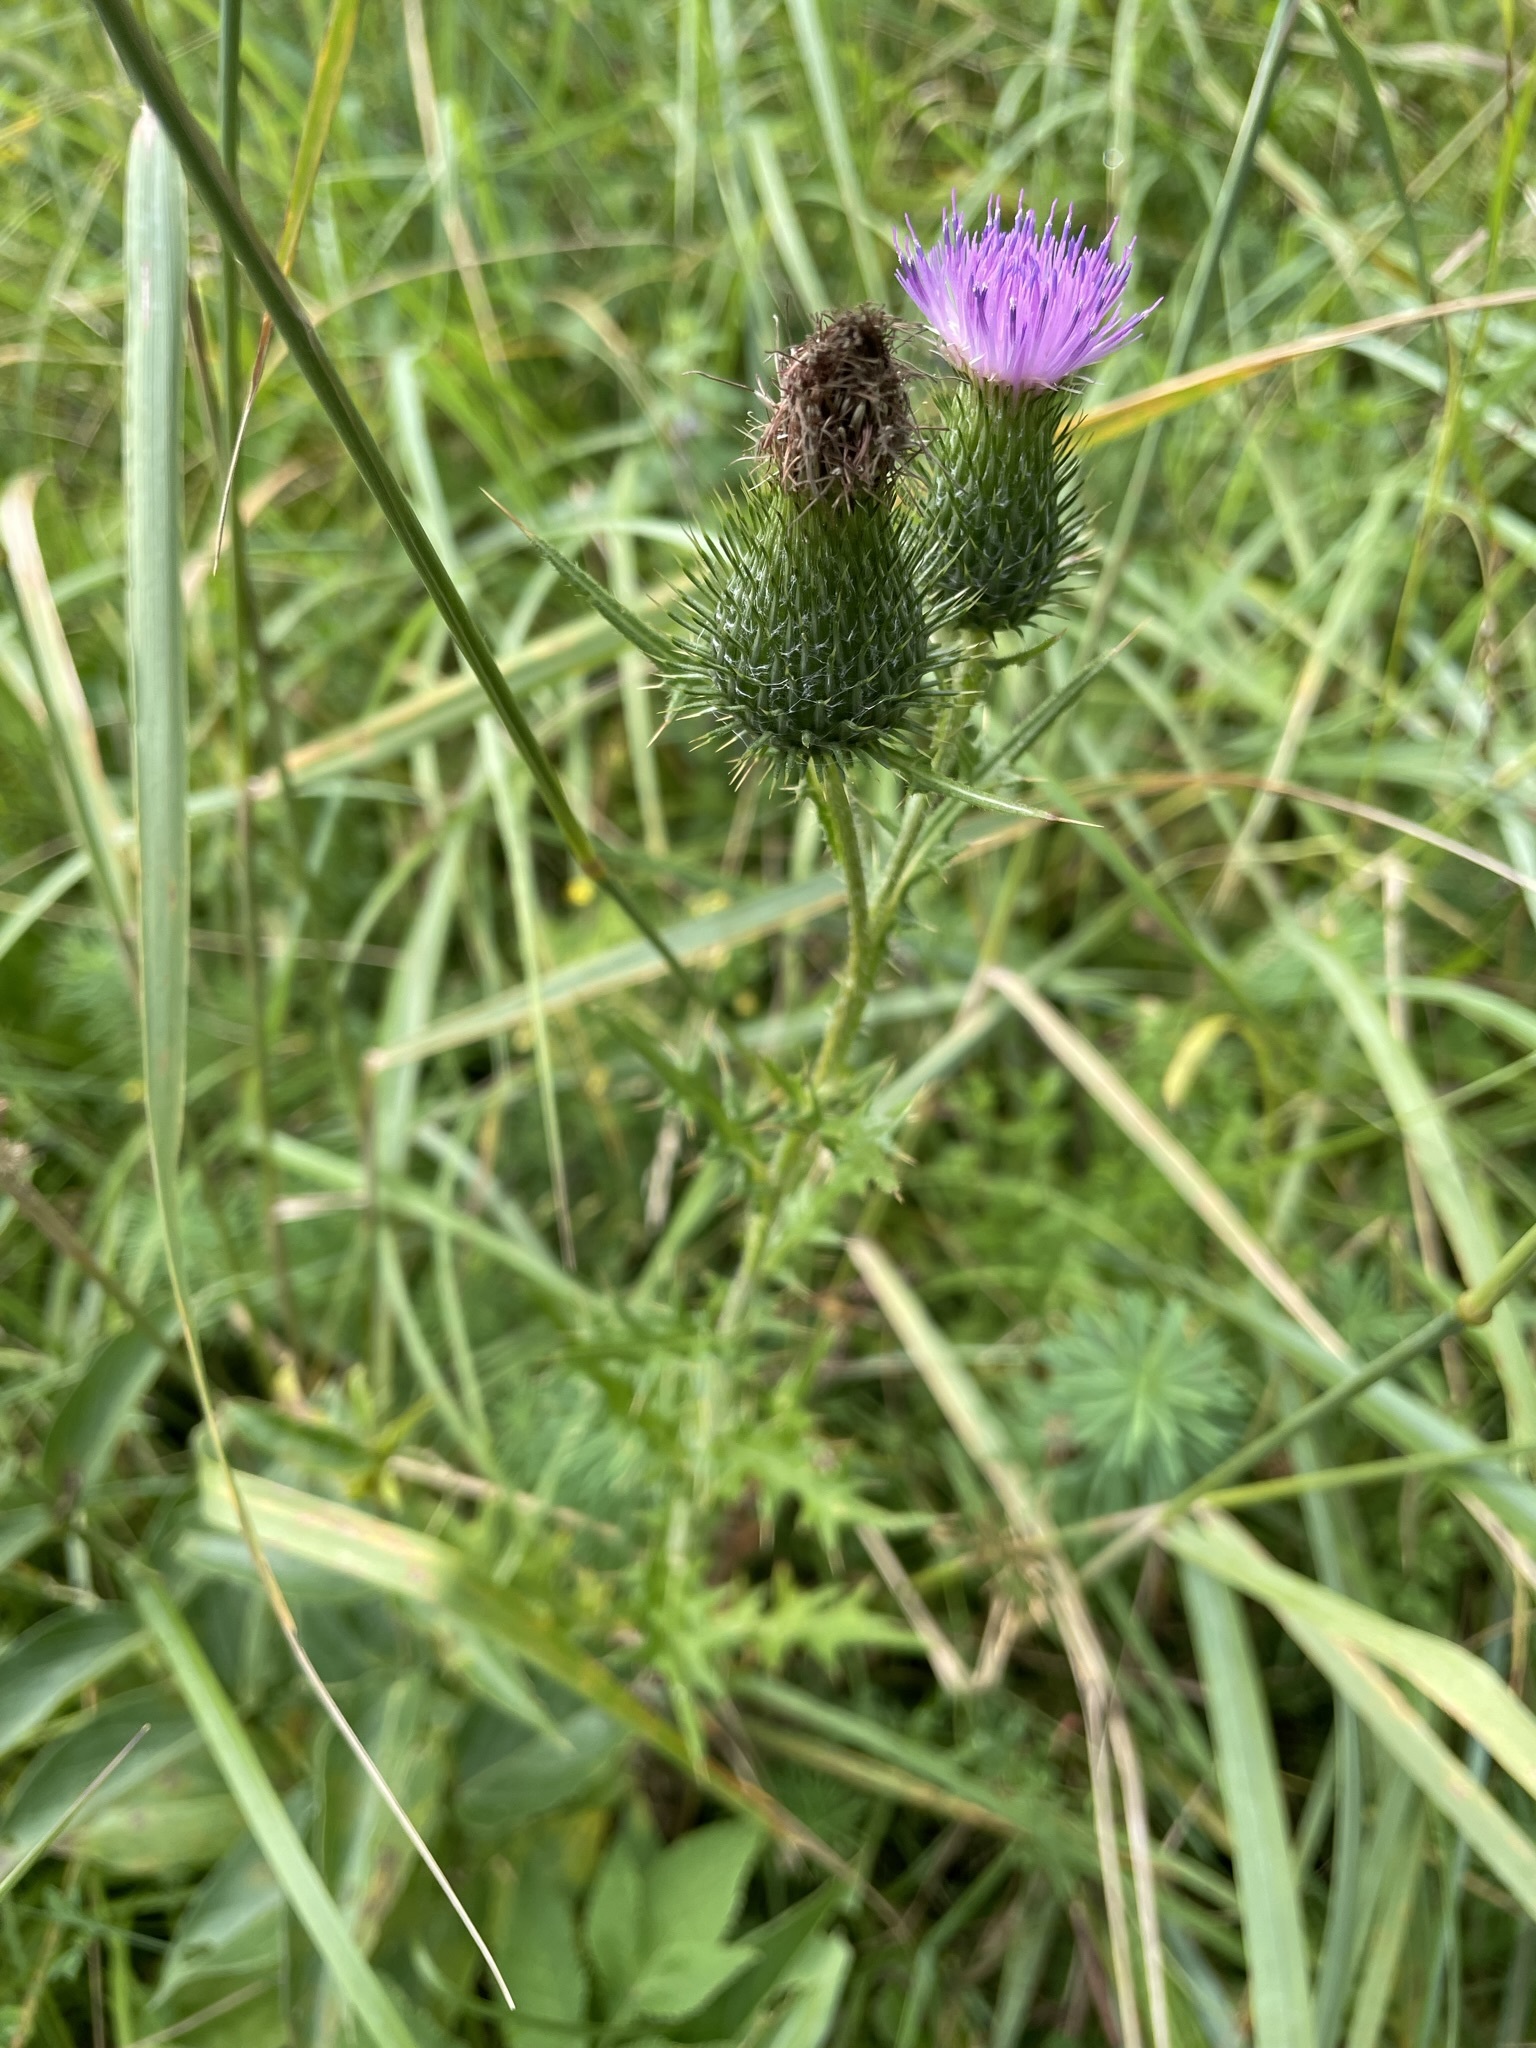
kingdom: Plantae
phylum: Tracheophyta
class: Magnoliopsida
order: Asterales
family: Asteraceae
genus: Cirsium
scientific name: Cirsium vulgare
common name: Bull thistle
